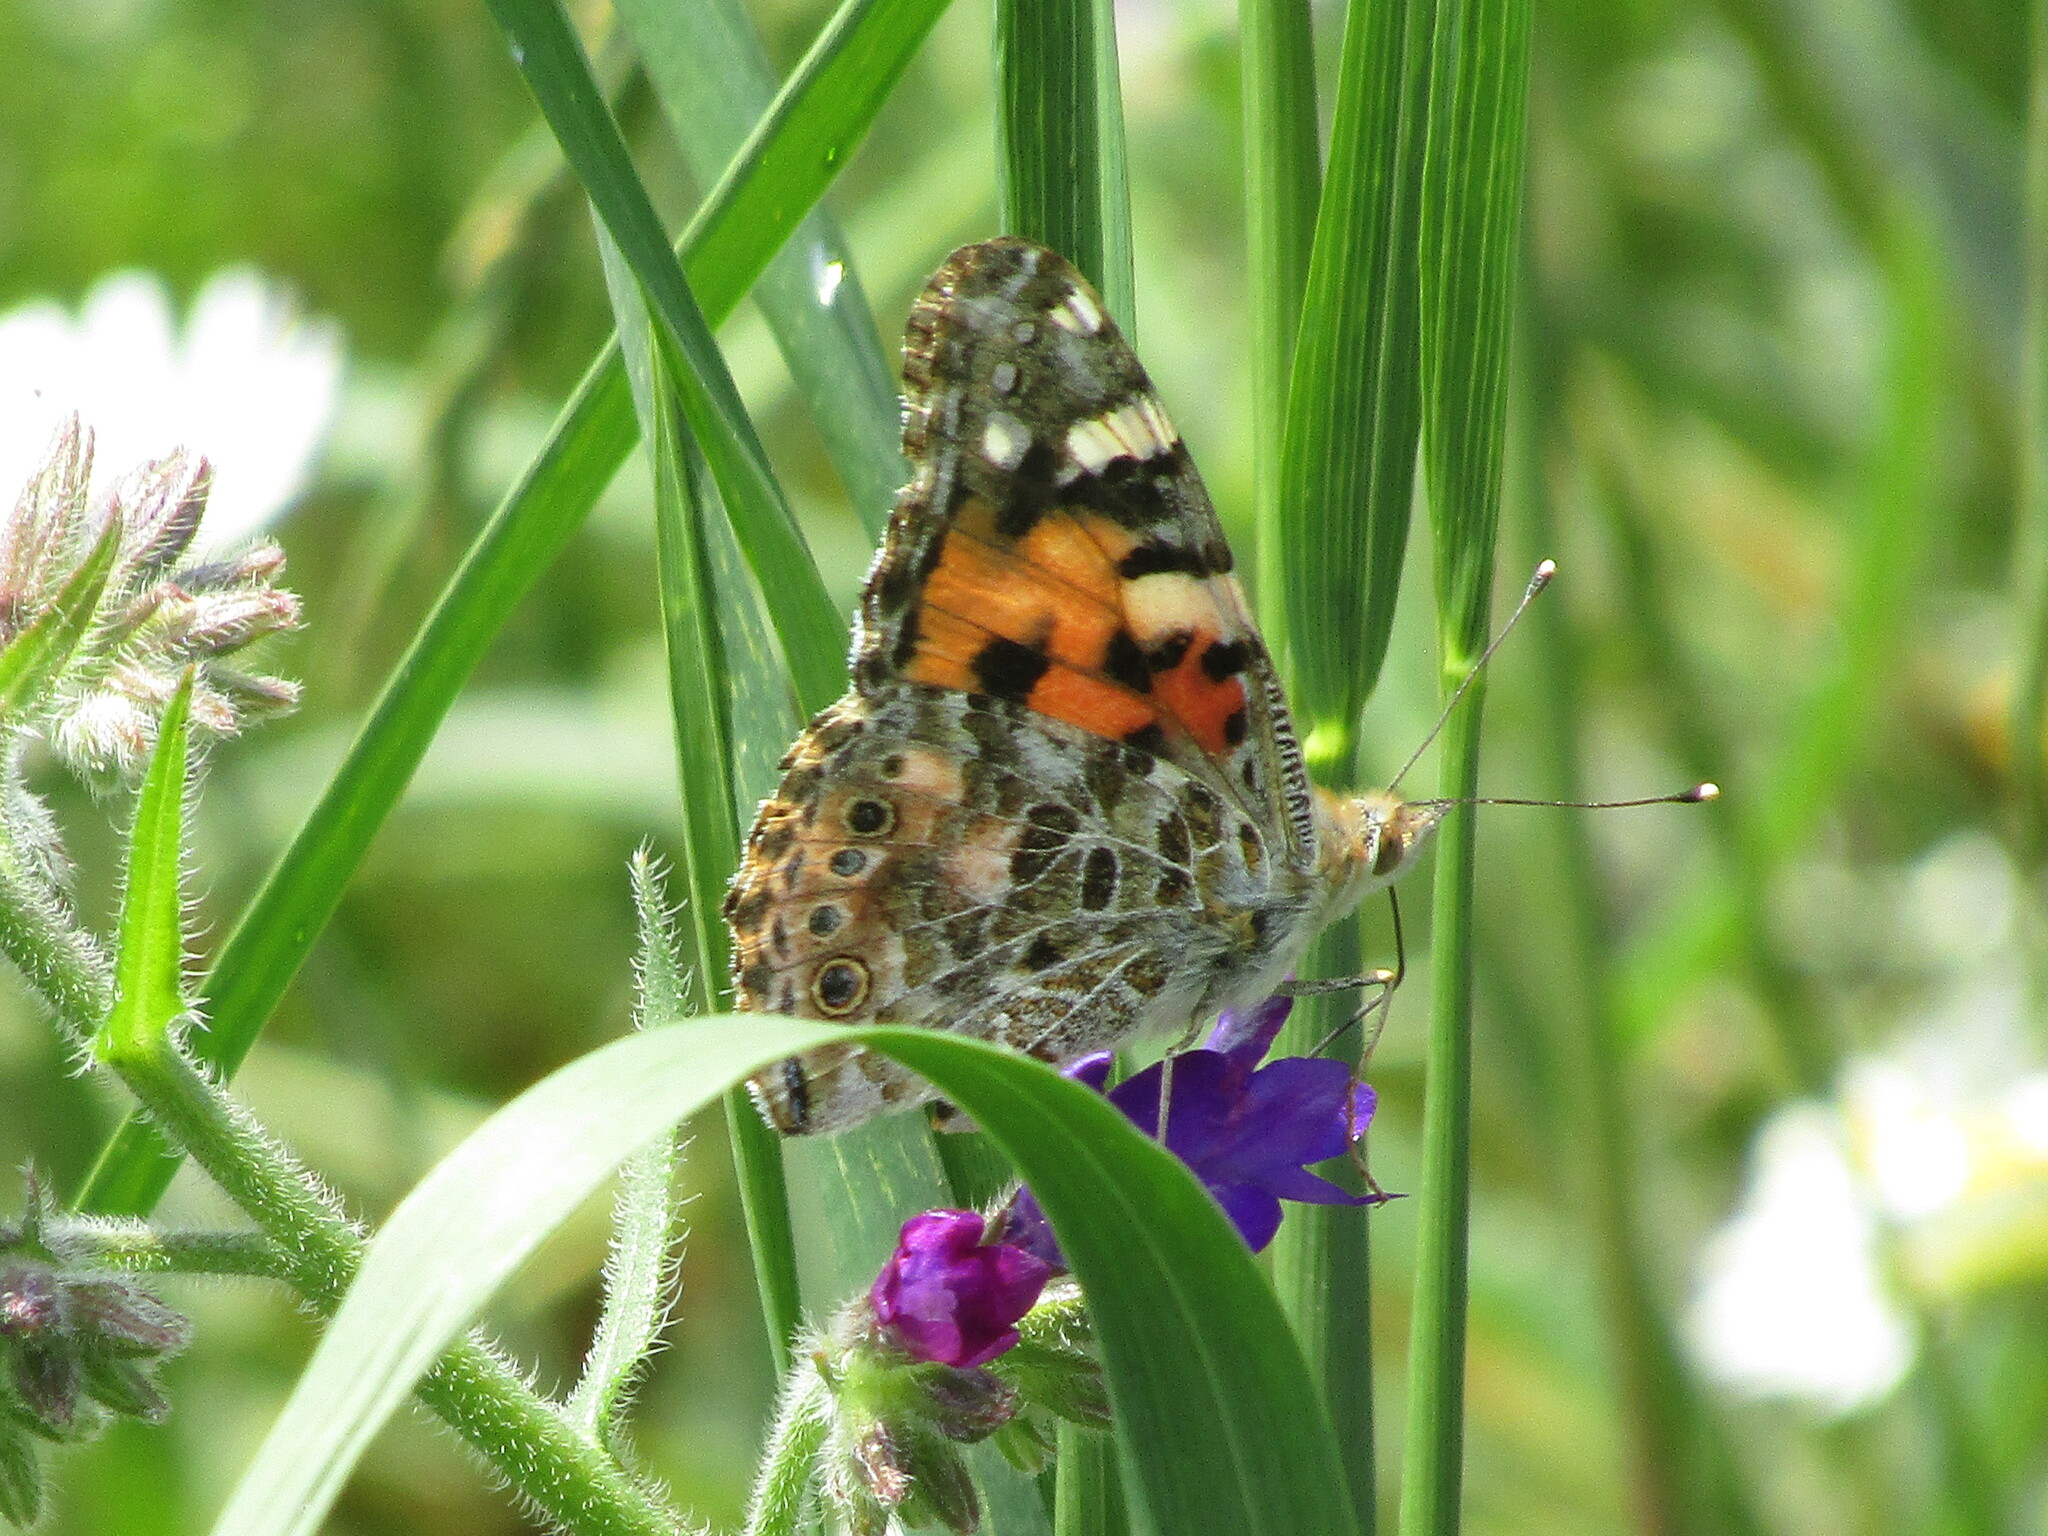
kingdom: Animalia
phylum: Arthropoda
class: Insecta
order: Lepidoptera
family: Nymphalidae
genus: Vanessa
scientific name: Vanessa cardui
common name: Painted lady
